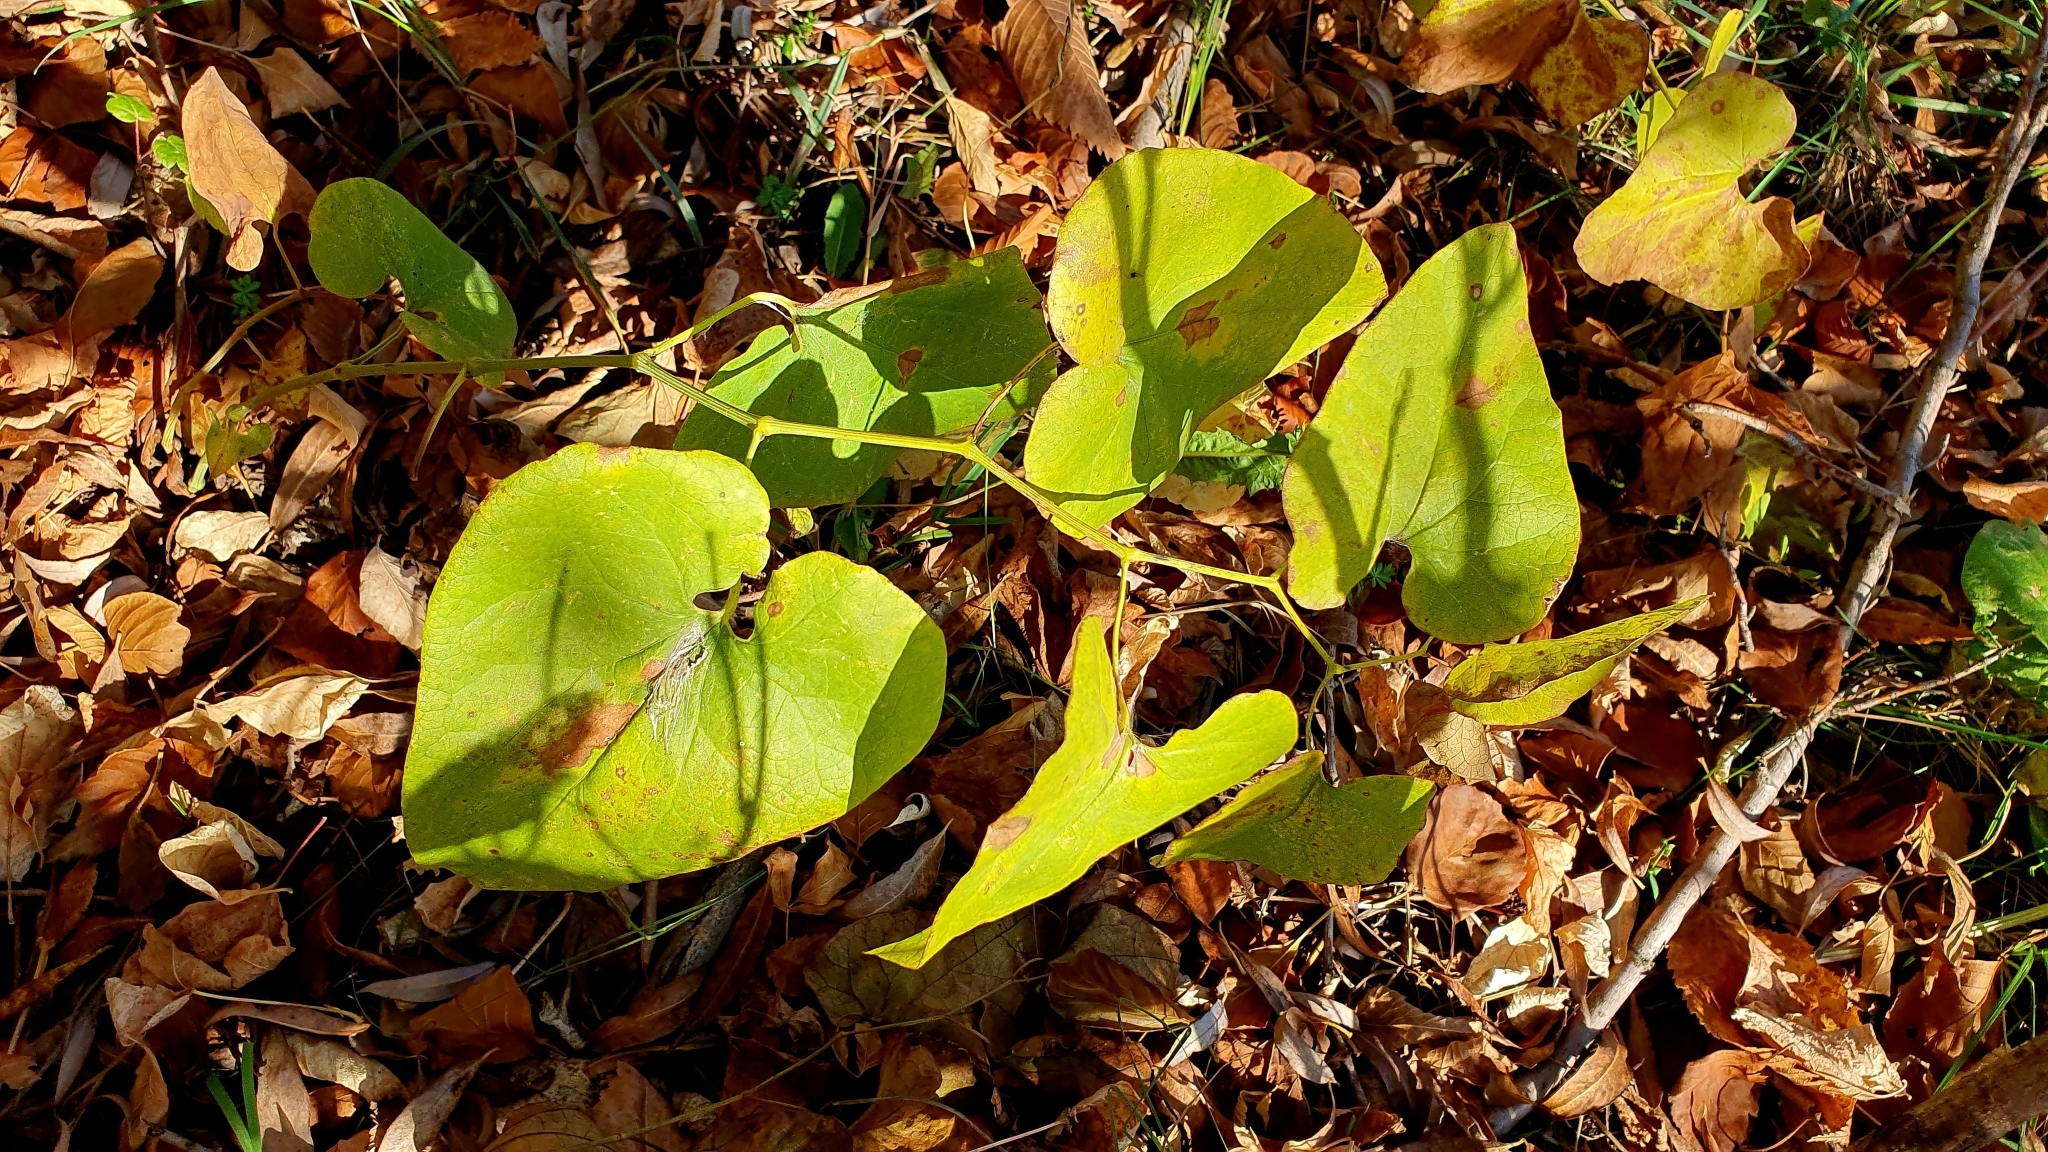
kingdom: Plantae
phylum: Tracheophyta
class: Magnoliopsida
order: Piperales
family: Aristolochiaceae
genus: Aristolochia
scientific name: Aristolochia clematitis
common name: Birthwort
